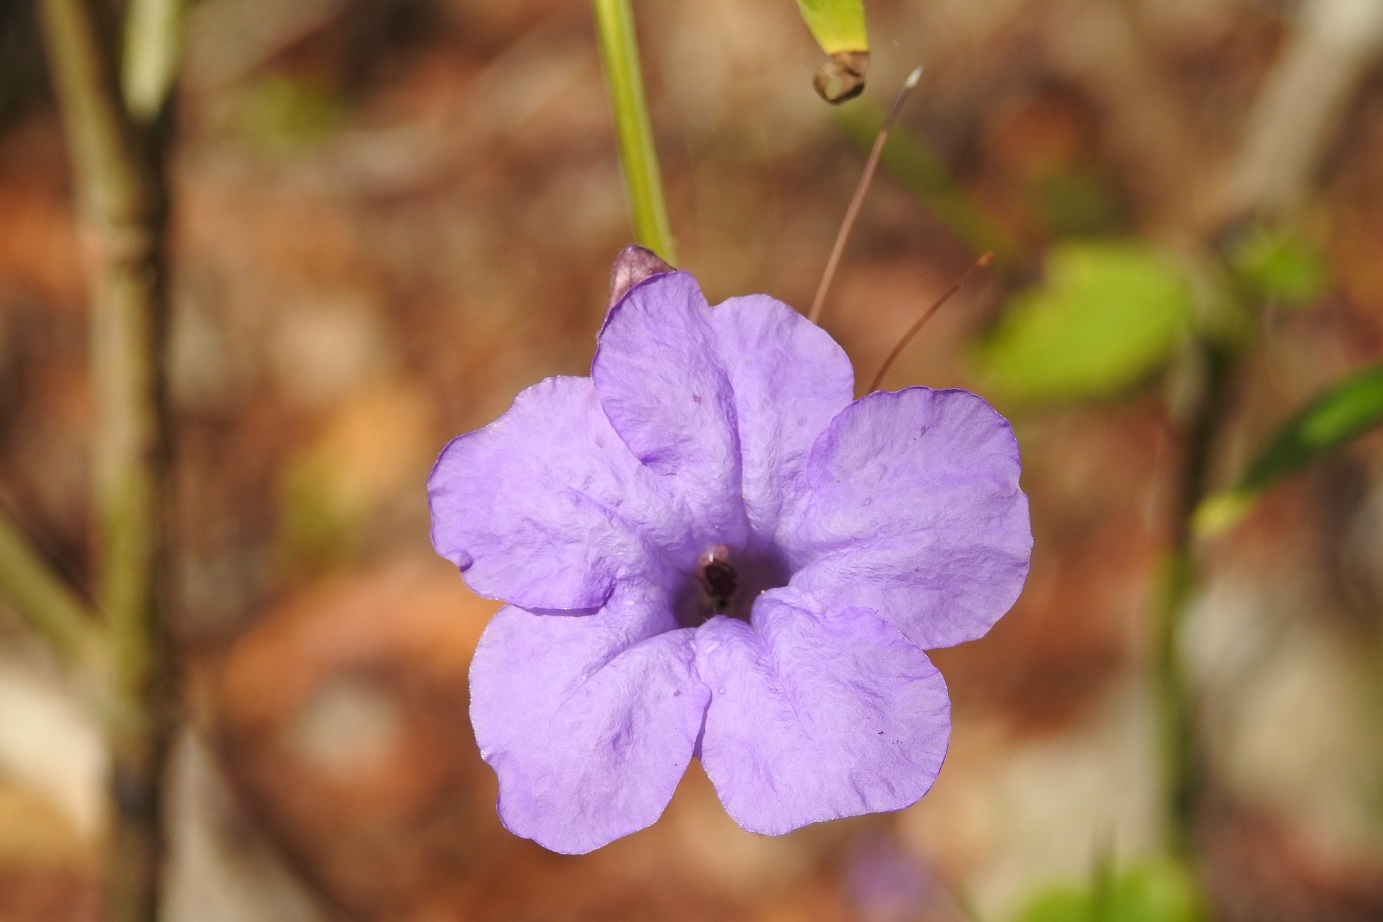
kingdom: Plantae
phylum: Tracheophyta
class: Magnoliopsida
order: Lamiales
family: Acanthaceae
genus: Ruellia
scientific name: Ruellia breedlovei
